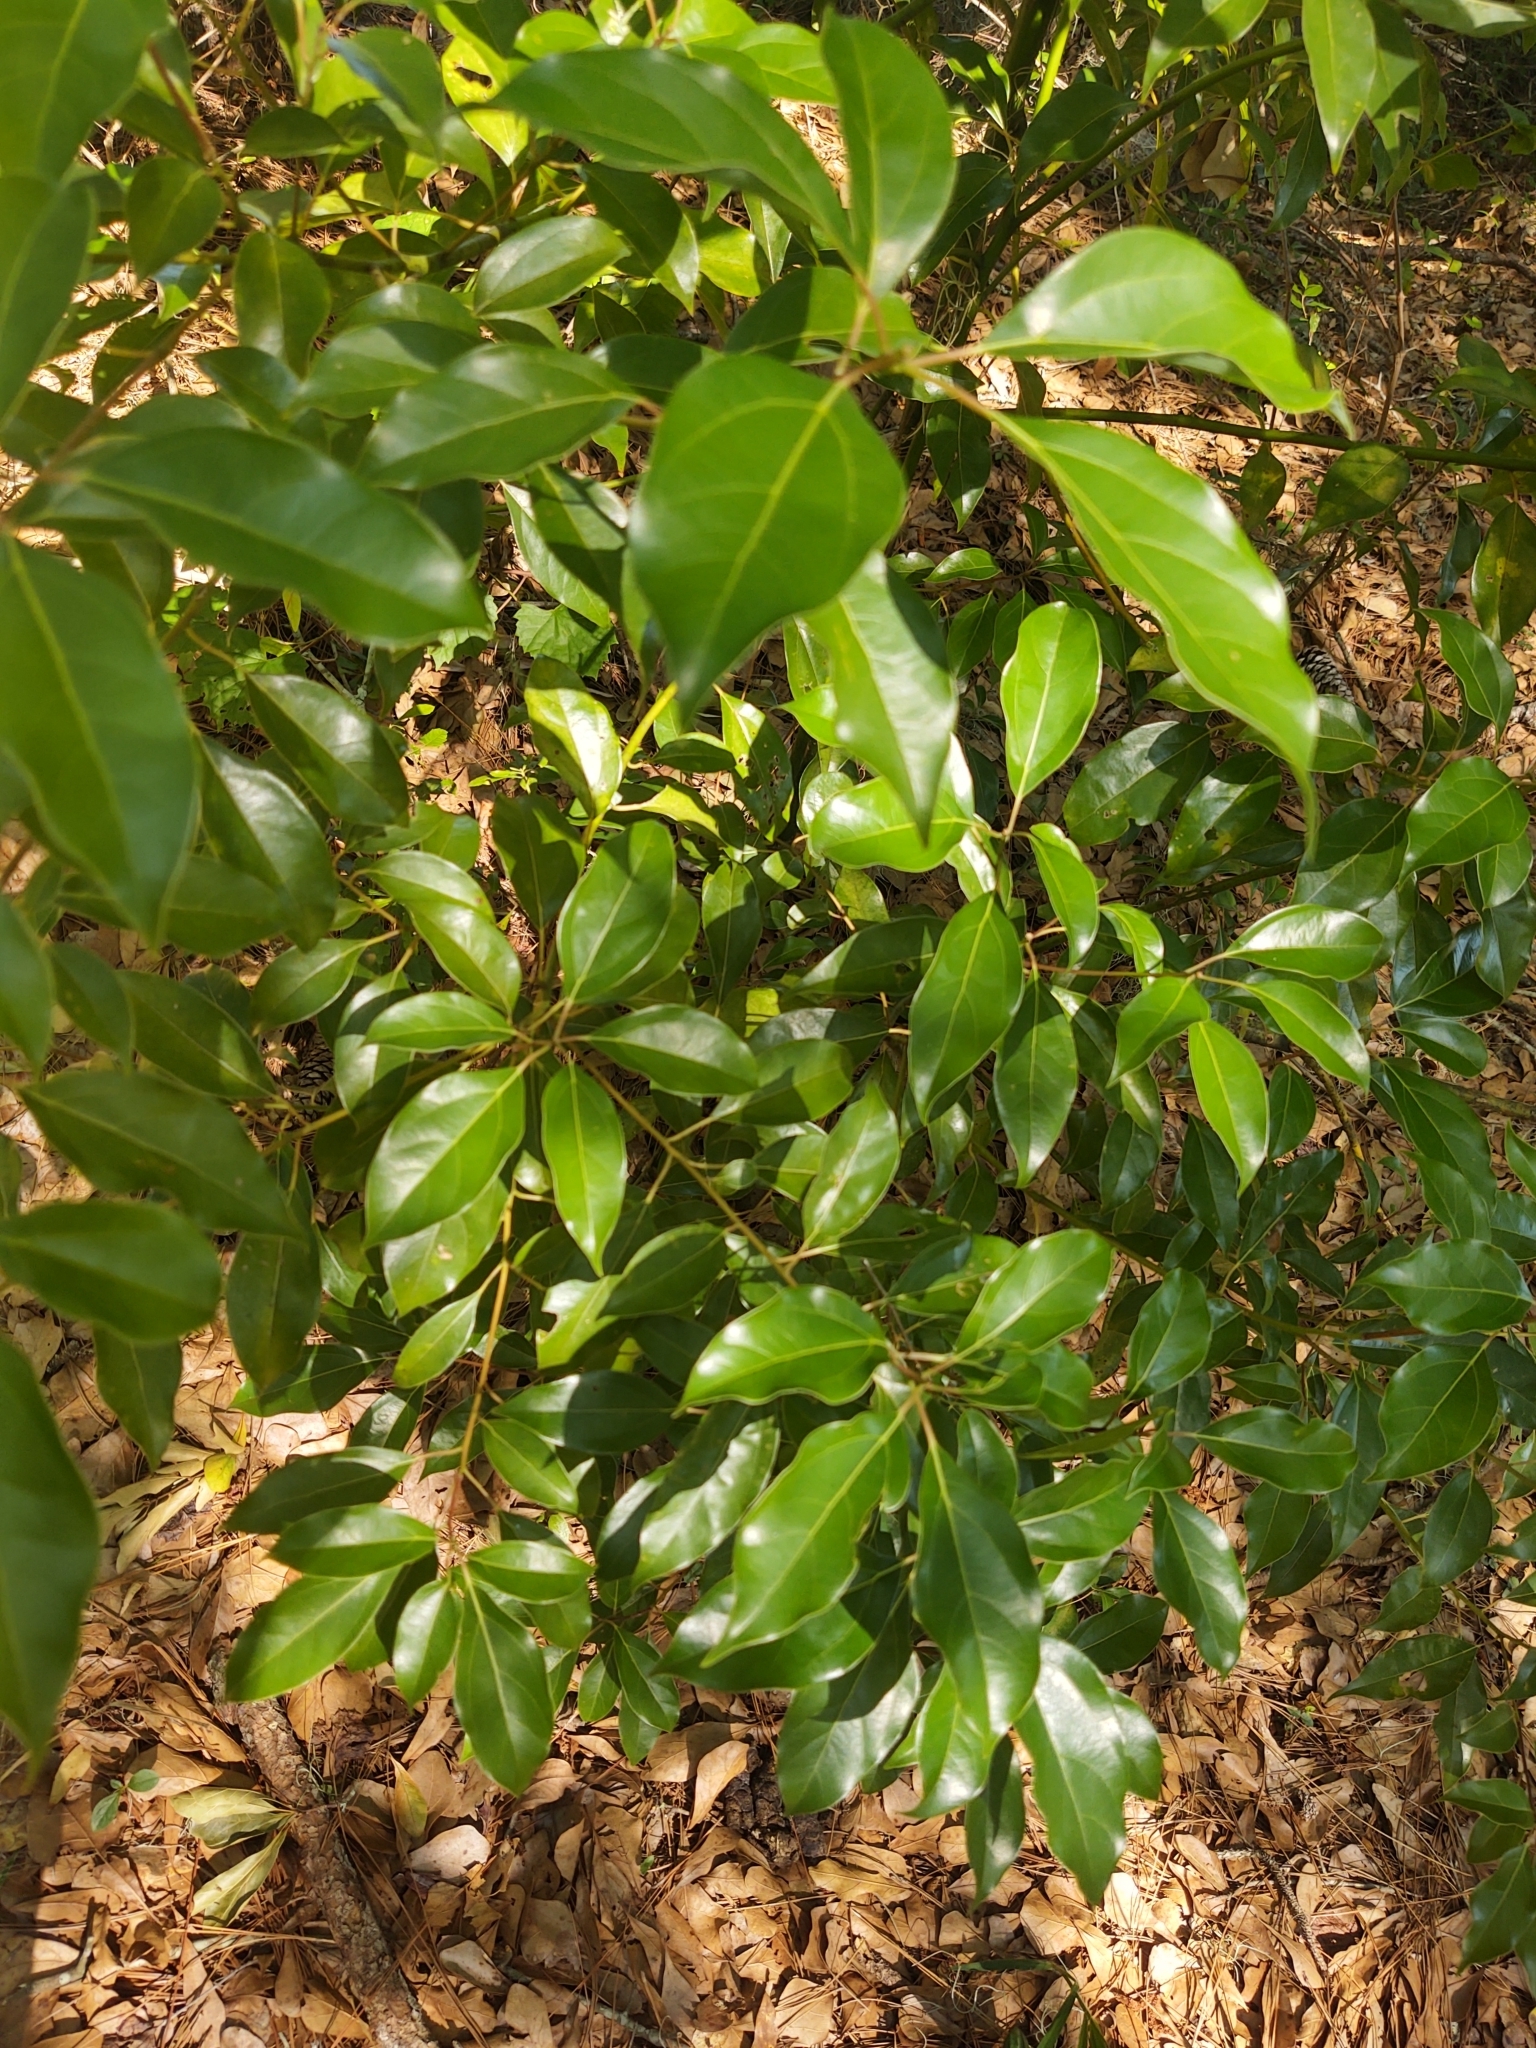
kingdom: Plantae
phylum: Tracheophyta
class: Magnoliopsida
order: Laurales
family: Lauraceae
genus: Cinnamomum
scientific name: Cinnamomum camphora
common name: Camphortree
